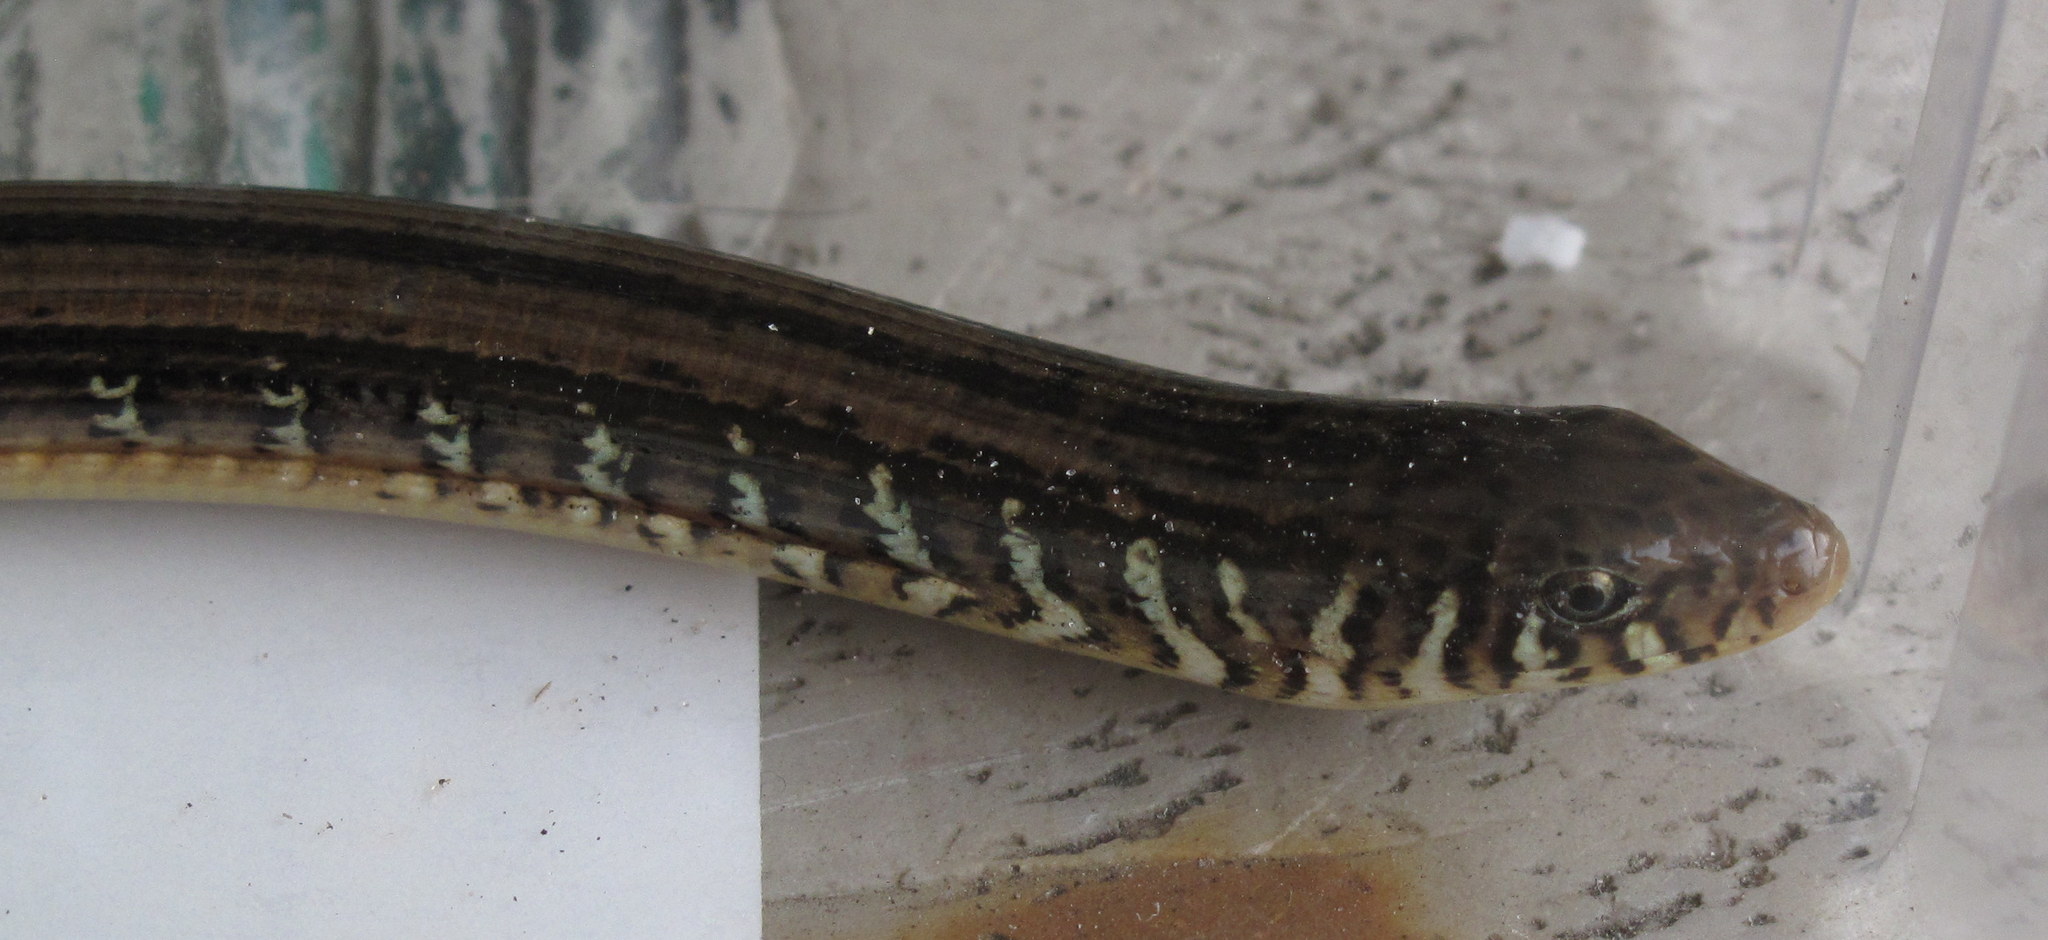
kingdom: Animalia
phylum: Chordata
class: Squamata
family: Anguidae
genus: Ophisaurus
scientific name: Ophisaurus ventralis
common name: Eastern glass lizard
